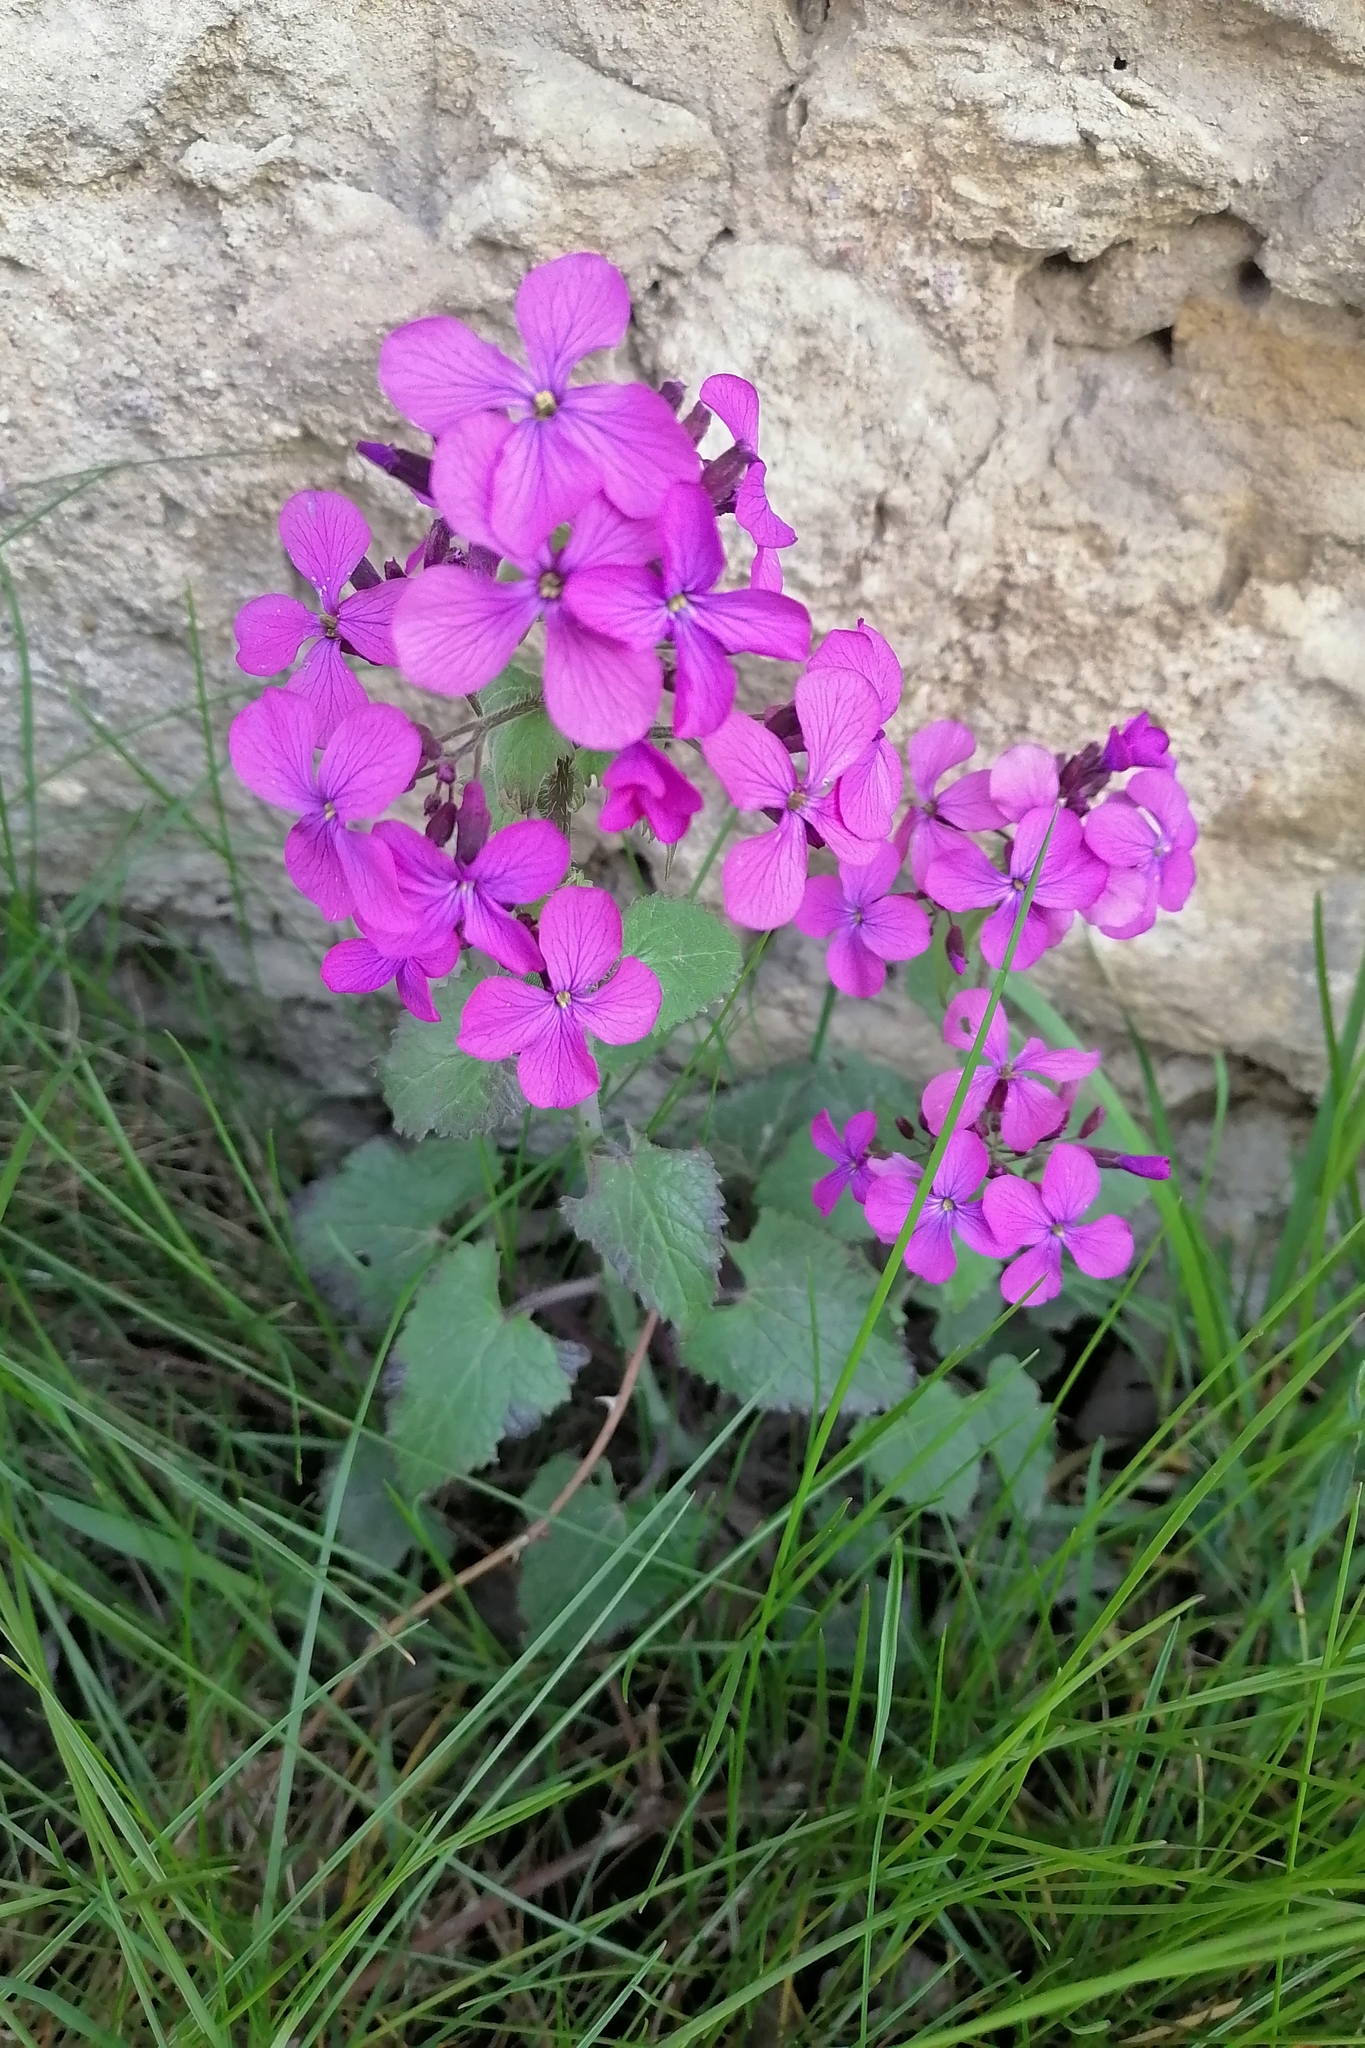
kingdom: Plantae
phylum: Tracheophyta
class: Magnoliopsida
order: Brassicales
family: Brassicaceae
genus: Lunaria
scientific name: Lunaria annua
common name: Honesty
